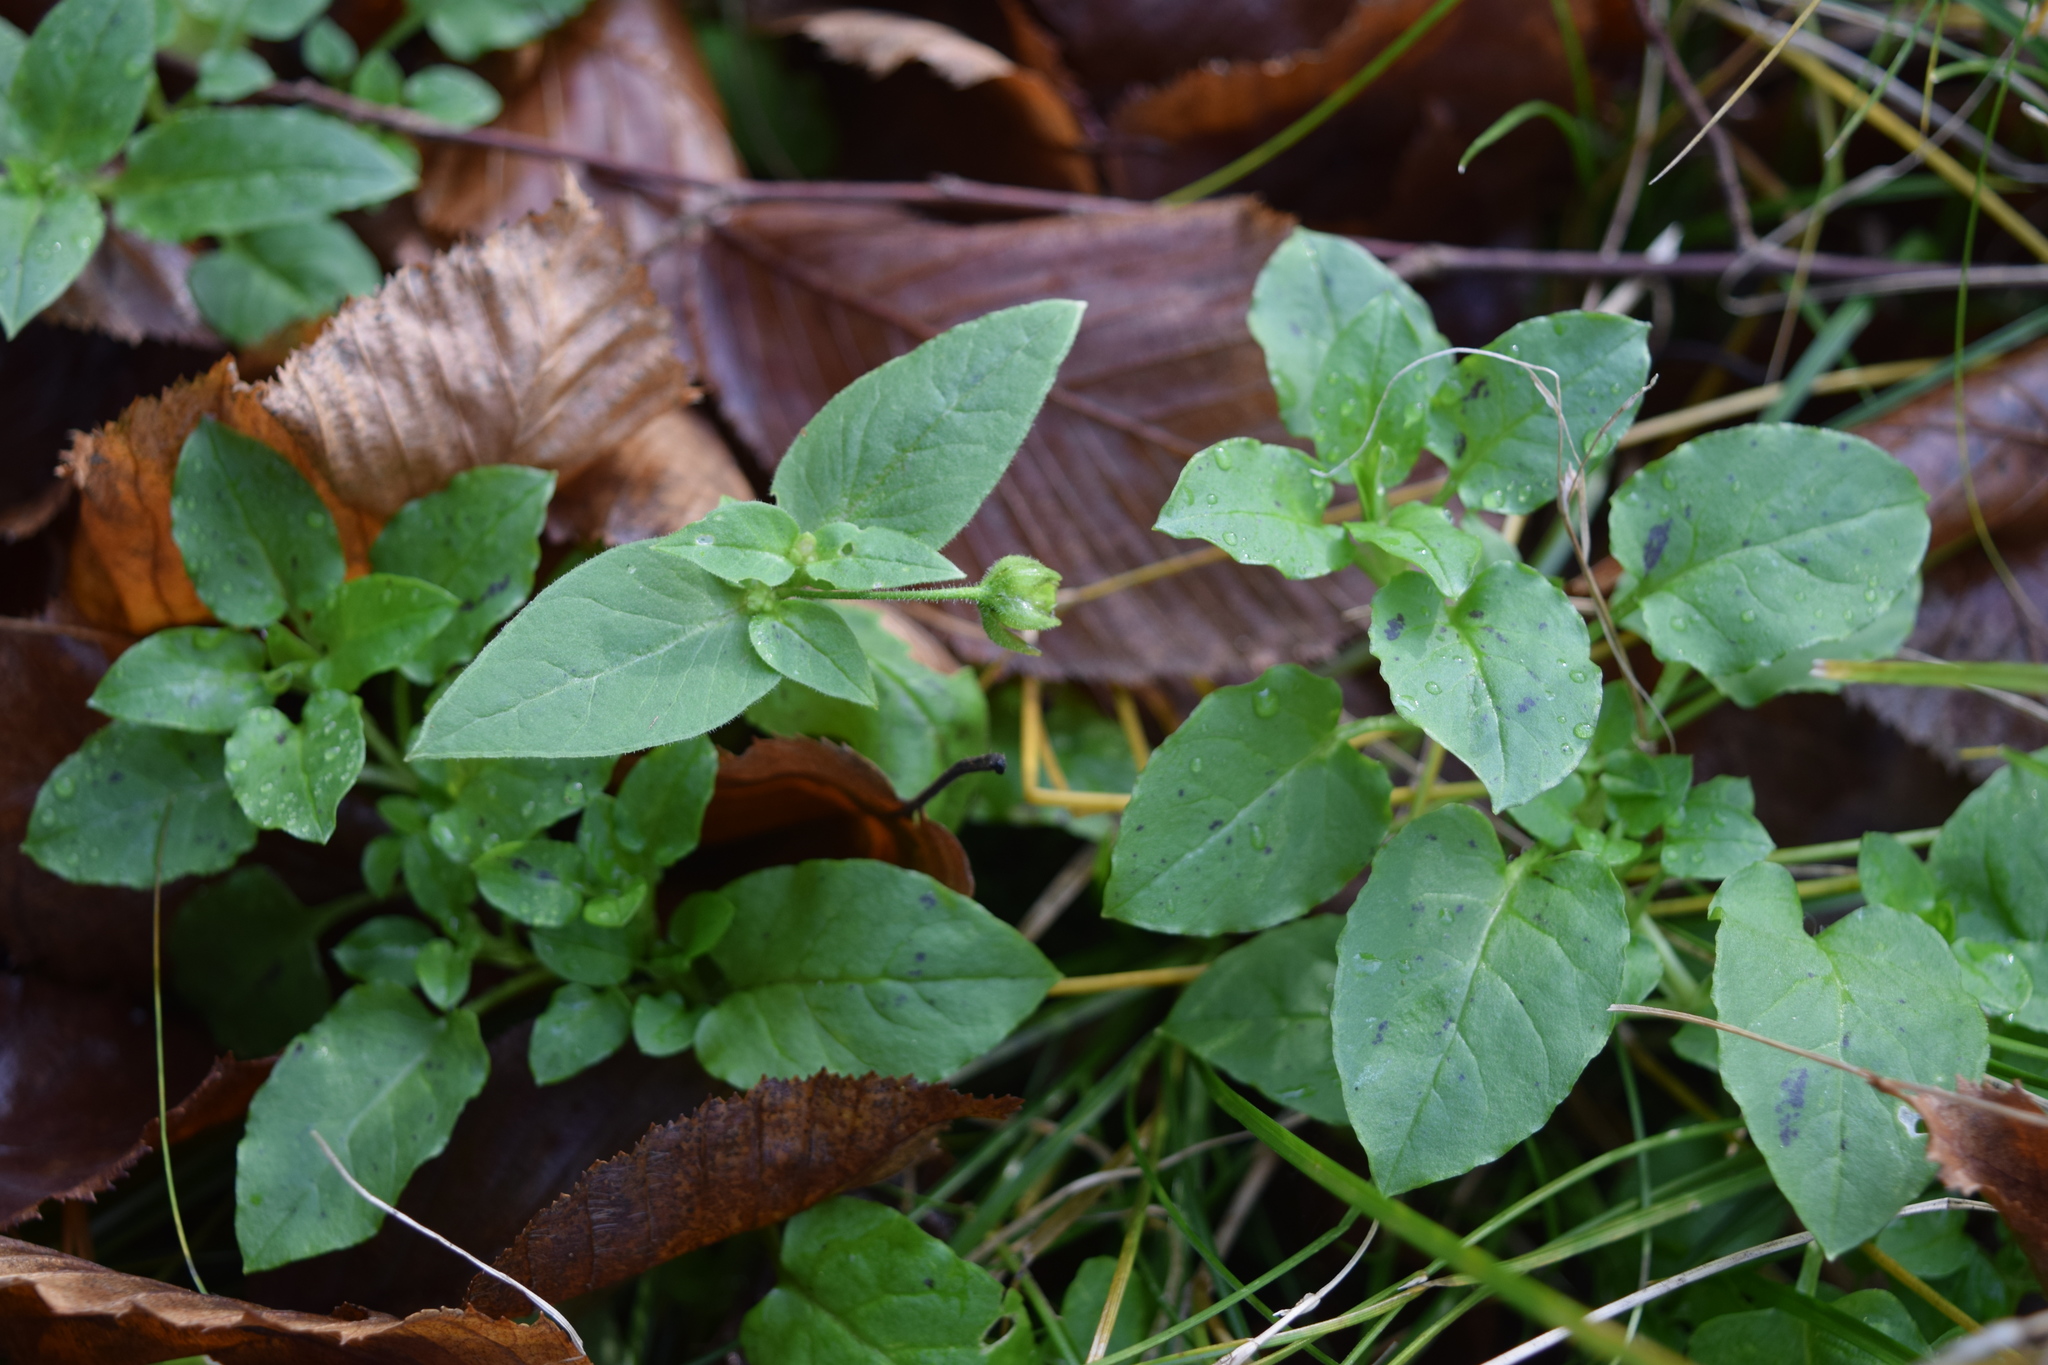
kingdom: Plantae
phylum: Tracheophyta
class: Magnoliopsida
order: Caryophyllales
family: Caryophyllaceae
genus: Stellaria
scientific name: Stellaria aquatica
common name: Water chickweed
